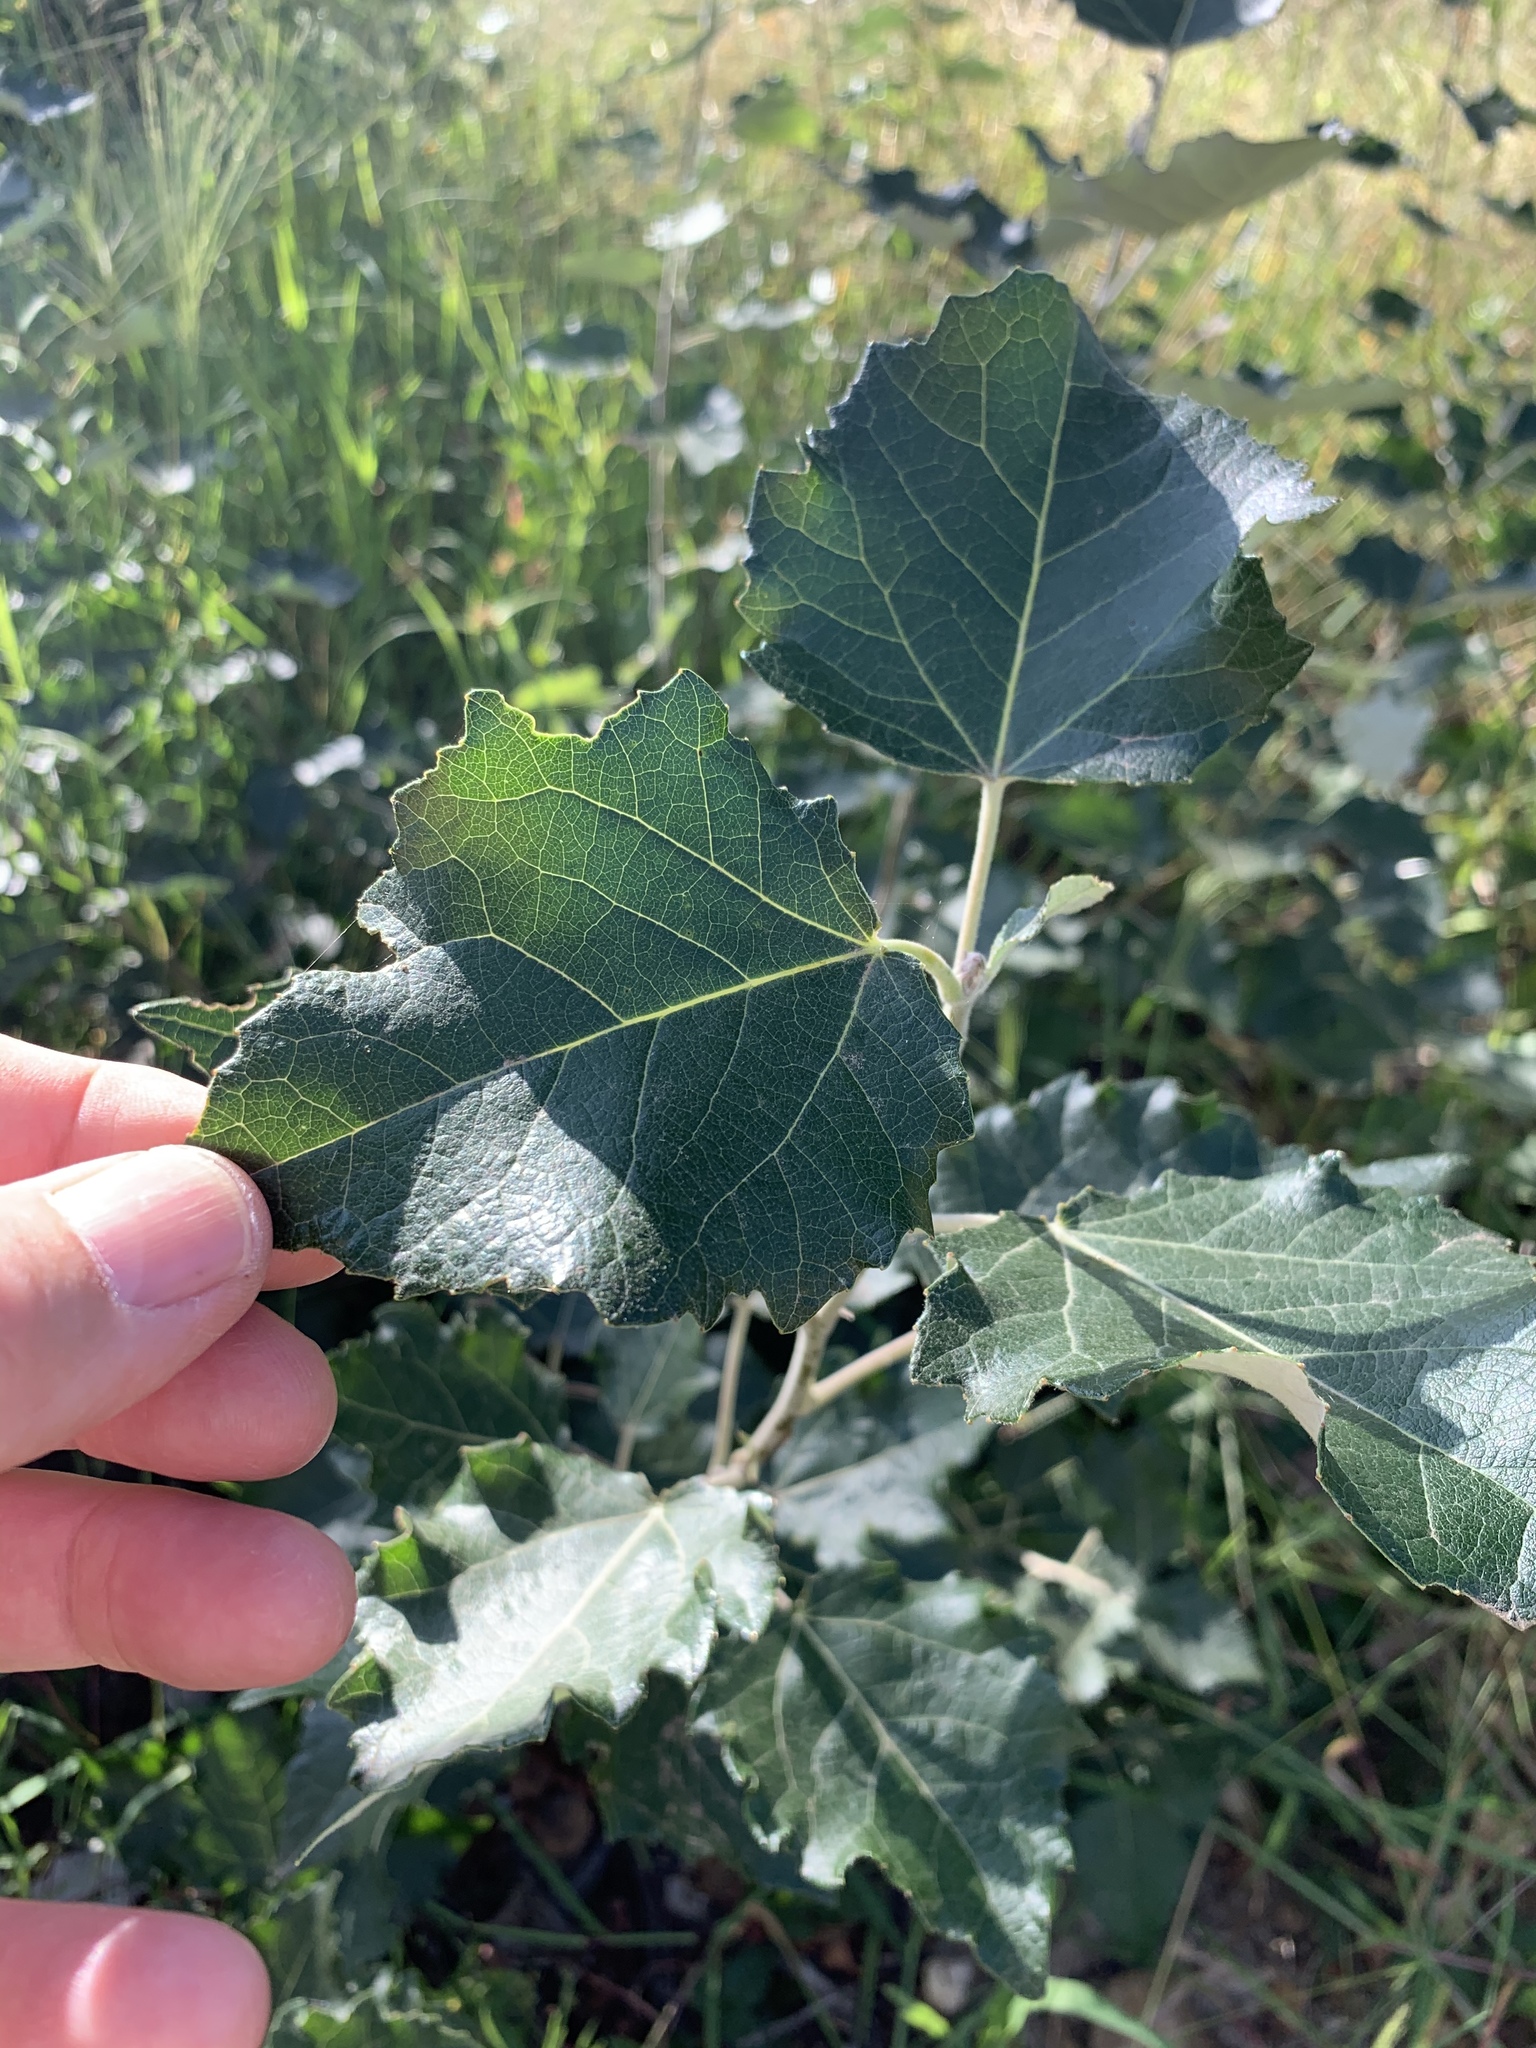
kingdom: Plantae
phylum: Tracheophyta
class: Magnoliopsida
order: Malpighiales
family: Salicaceae
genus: Populus
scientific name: Populus canescens
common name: Gray poplar
